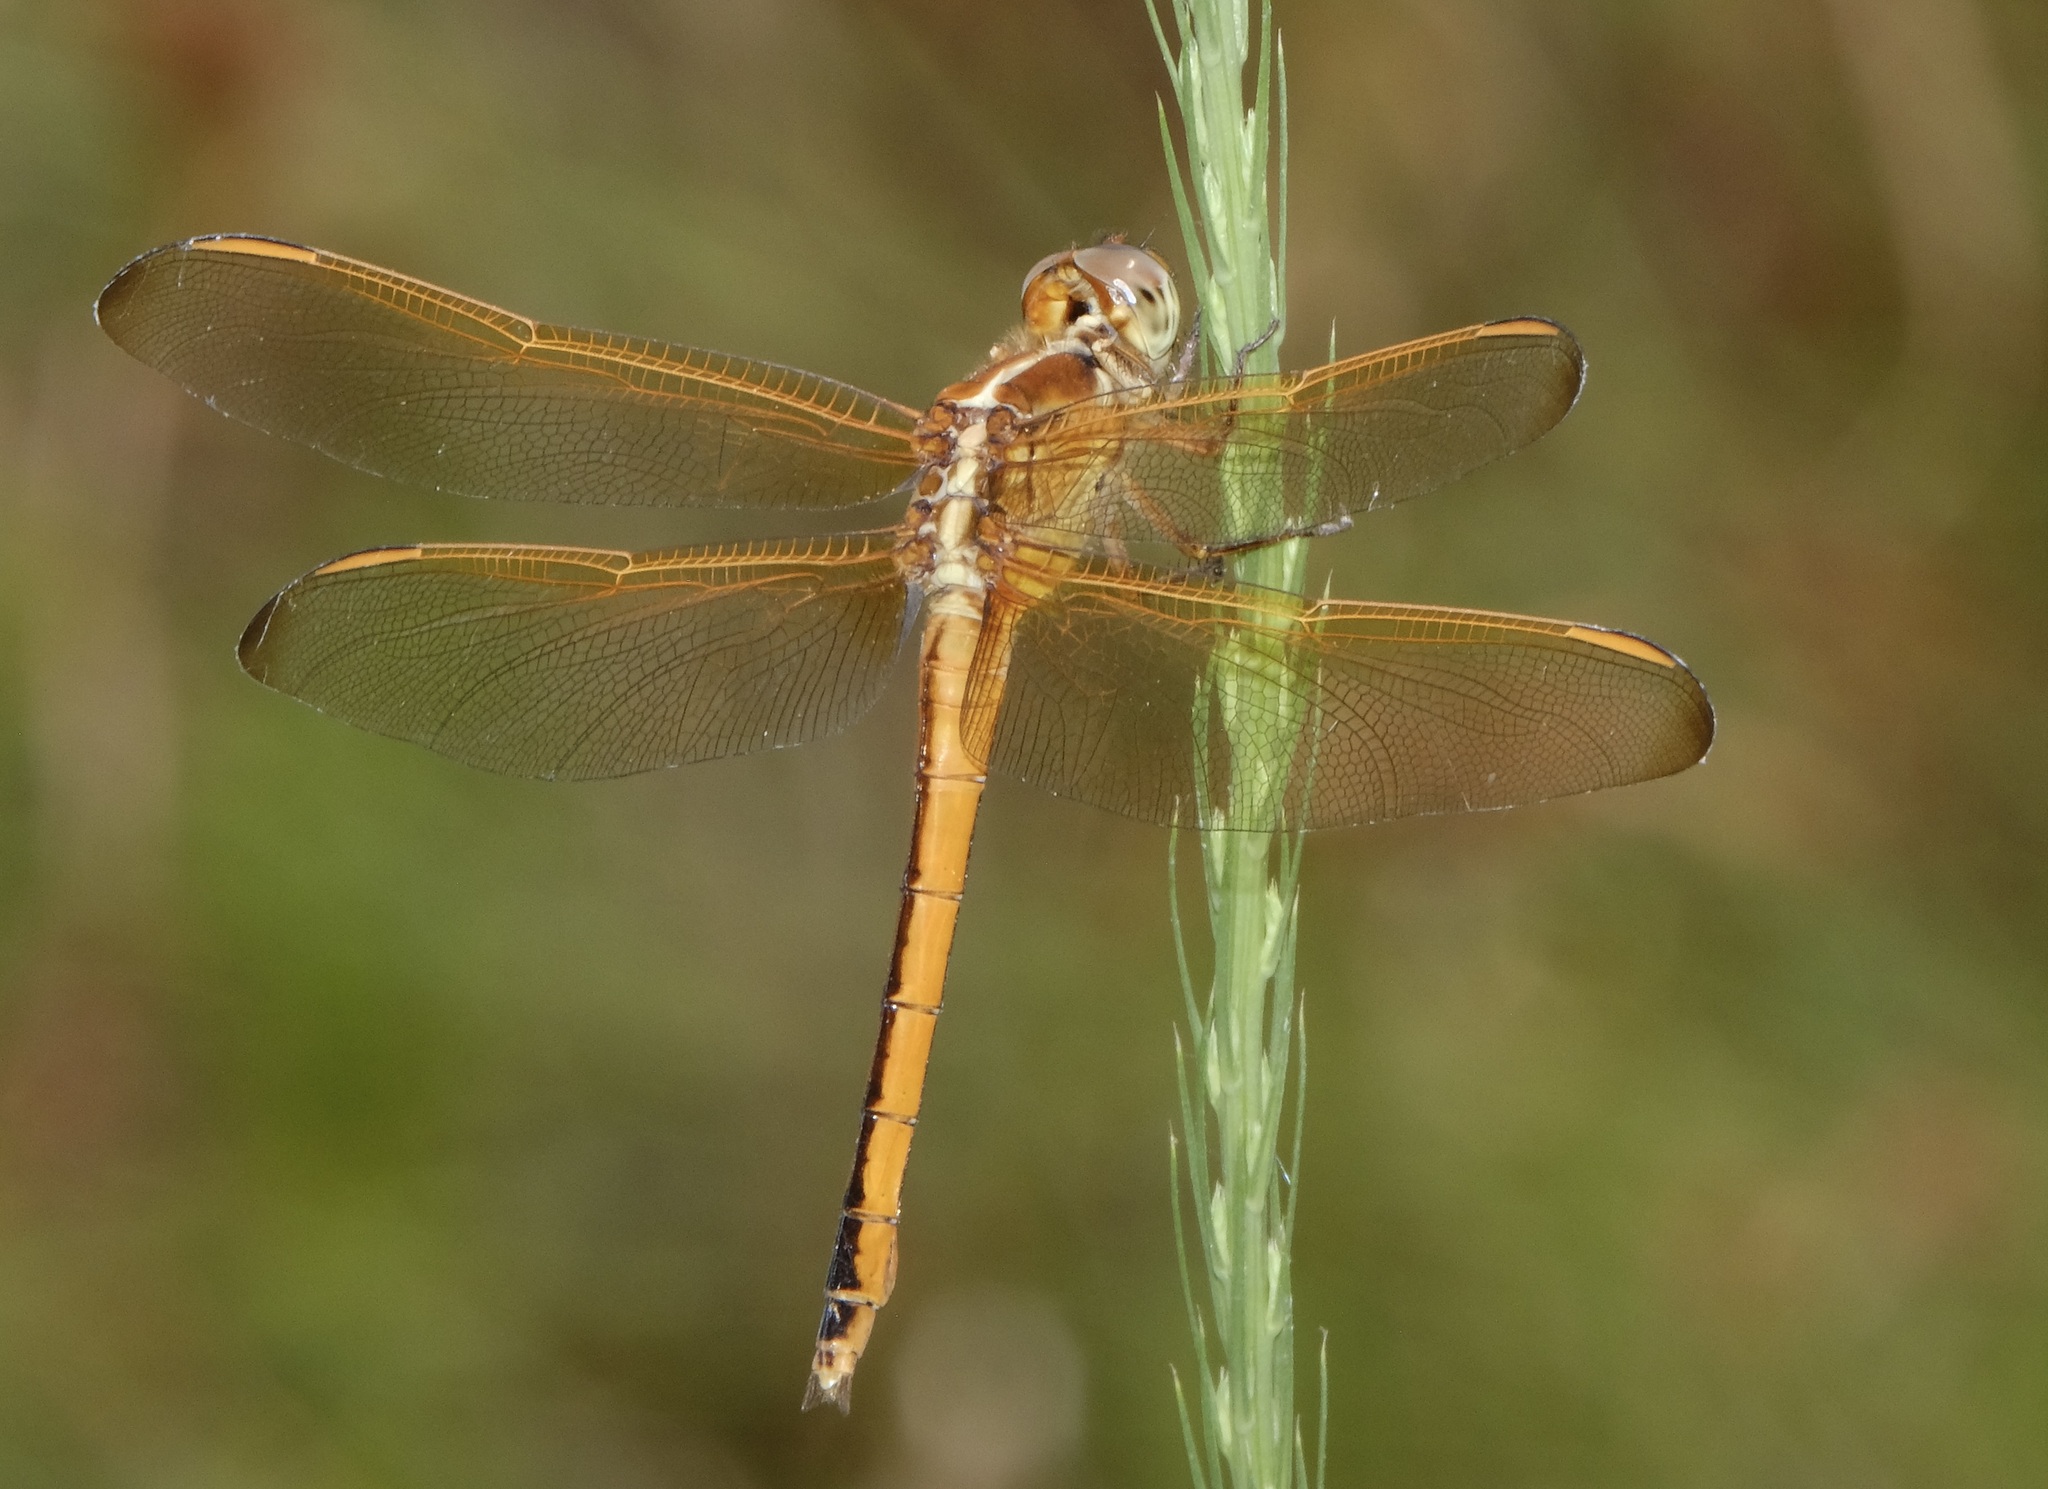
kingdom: Animalia
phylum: Arthropoda
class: Insecta
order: Odonata
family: Libellulidae
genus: Libellula
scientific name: Libellula needhami
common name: Needham's skimmer
